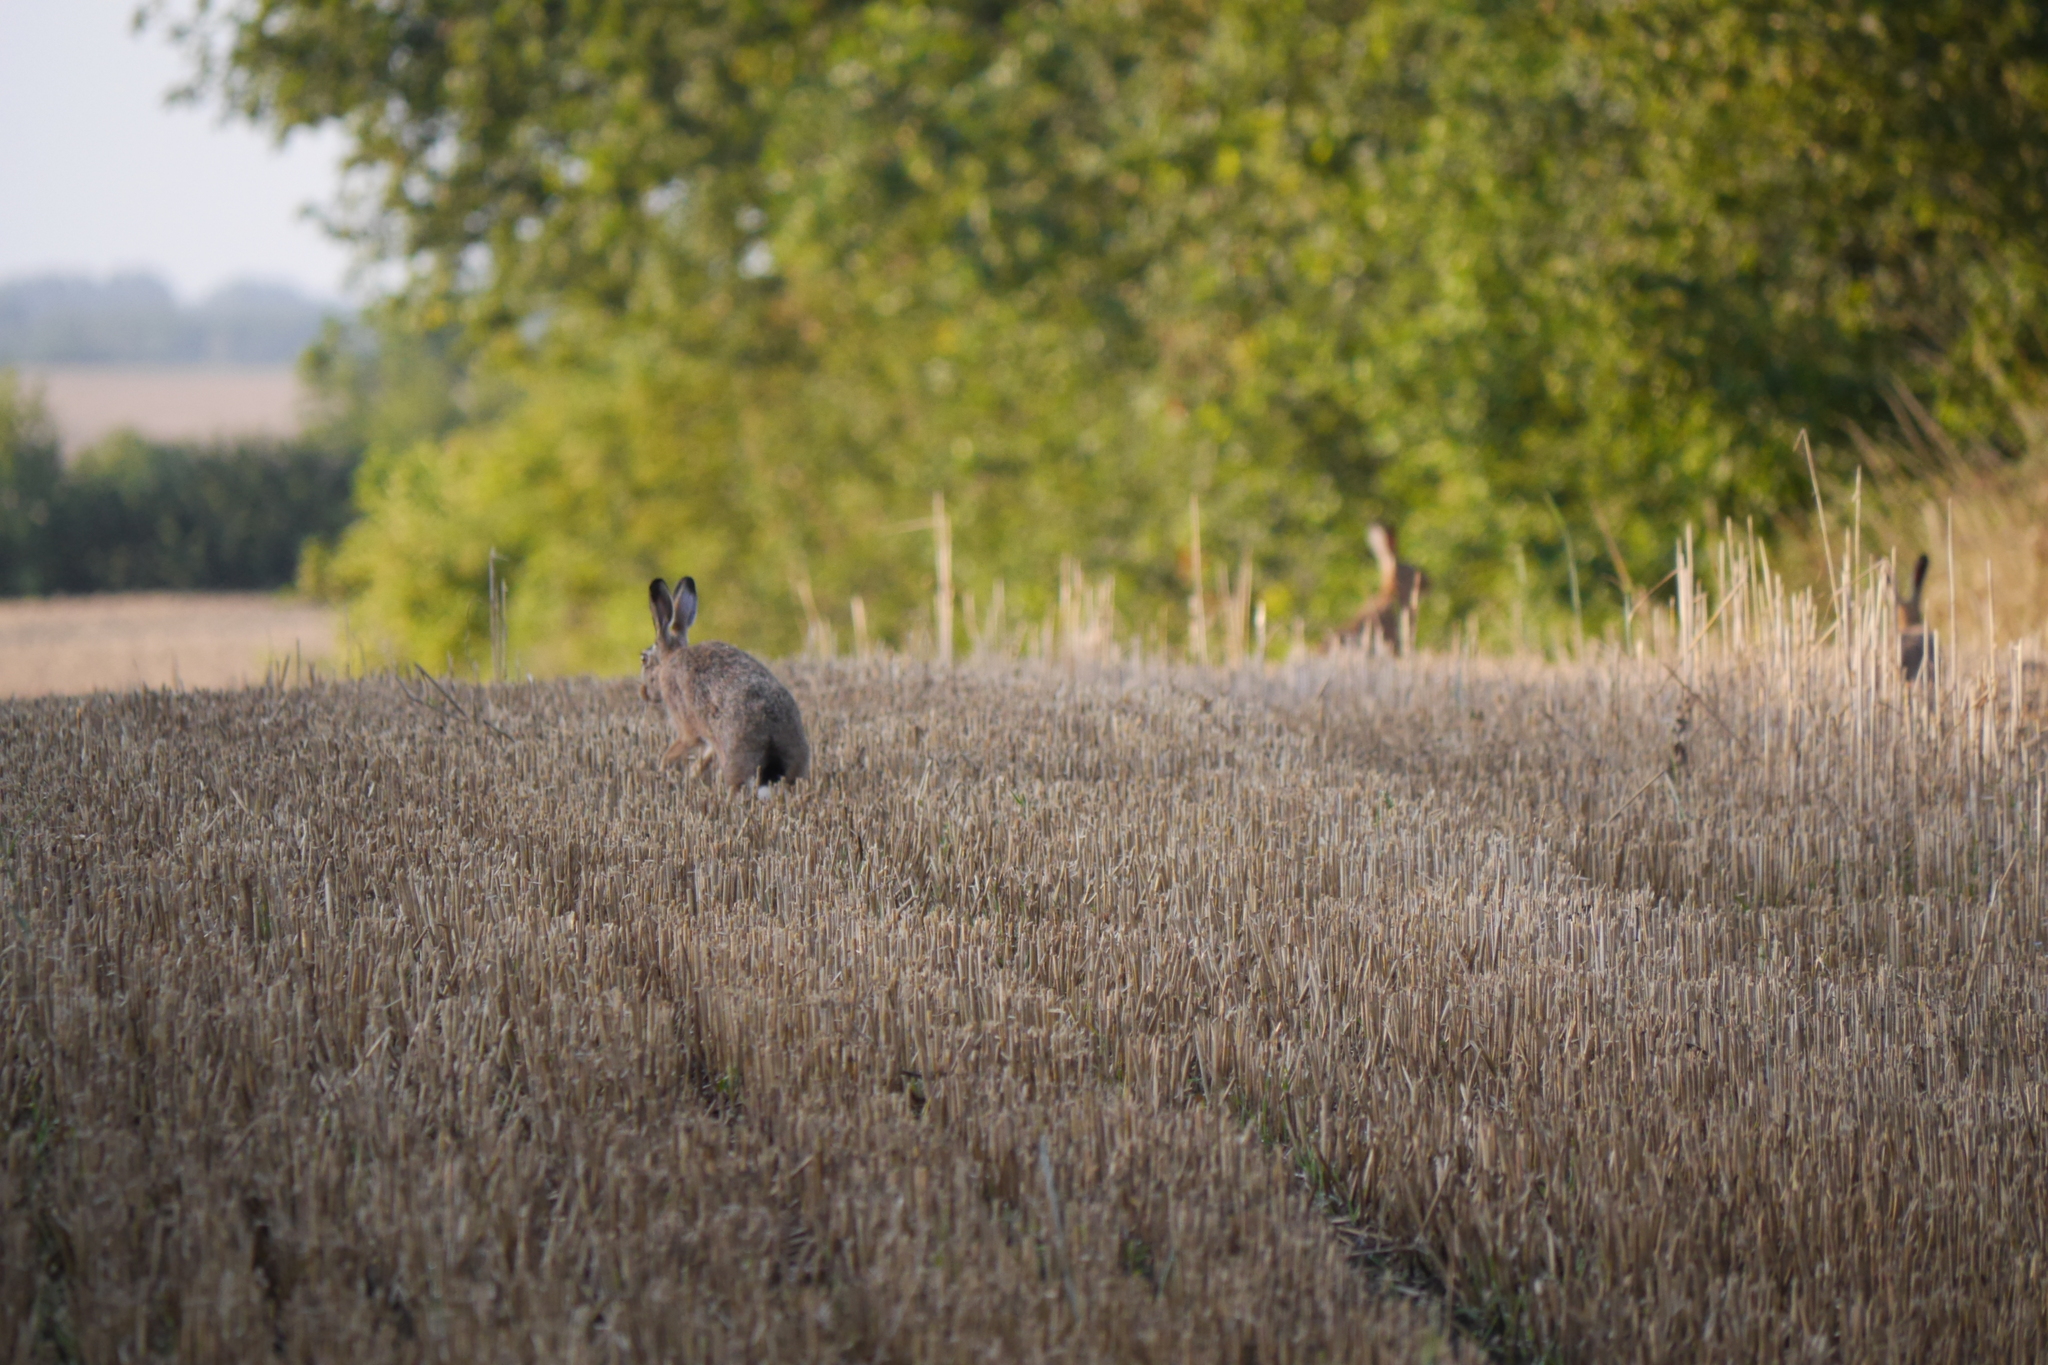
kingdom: Animalia
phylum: Chordata
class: Mammalia
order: Lagomorpha
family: Leporidae
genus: Lepus
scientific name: Lepus europaeus
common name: European hare
